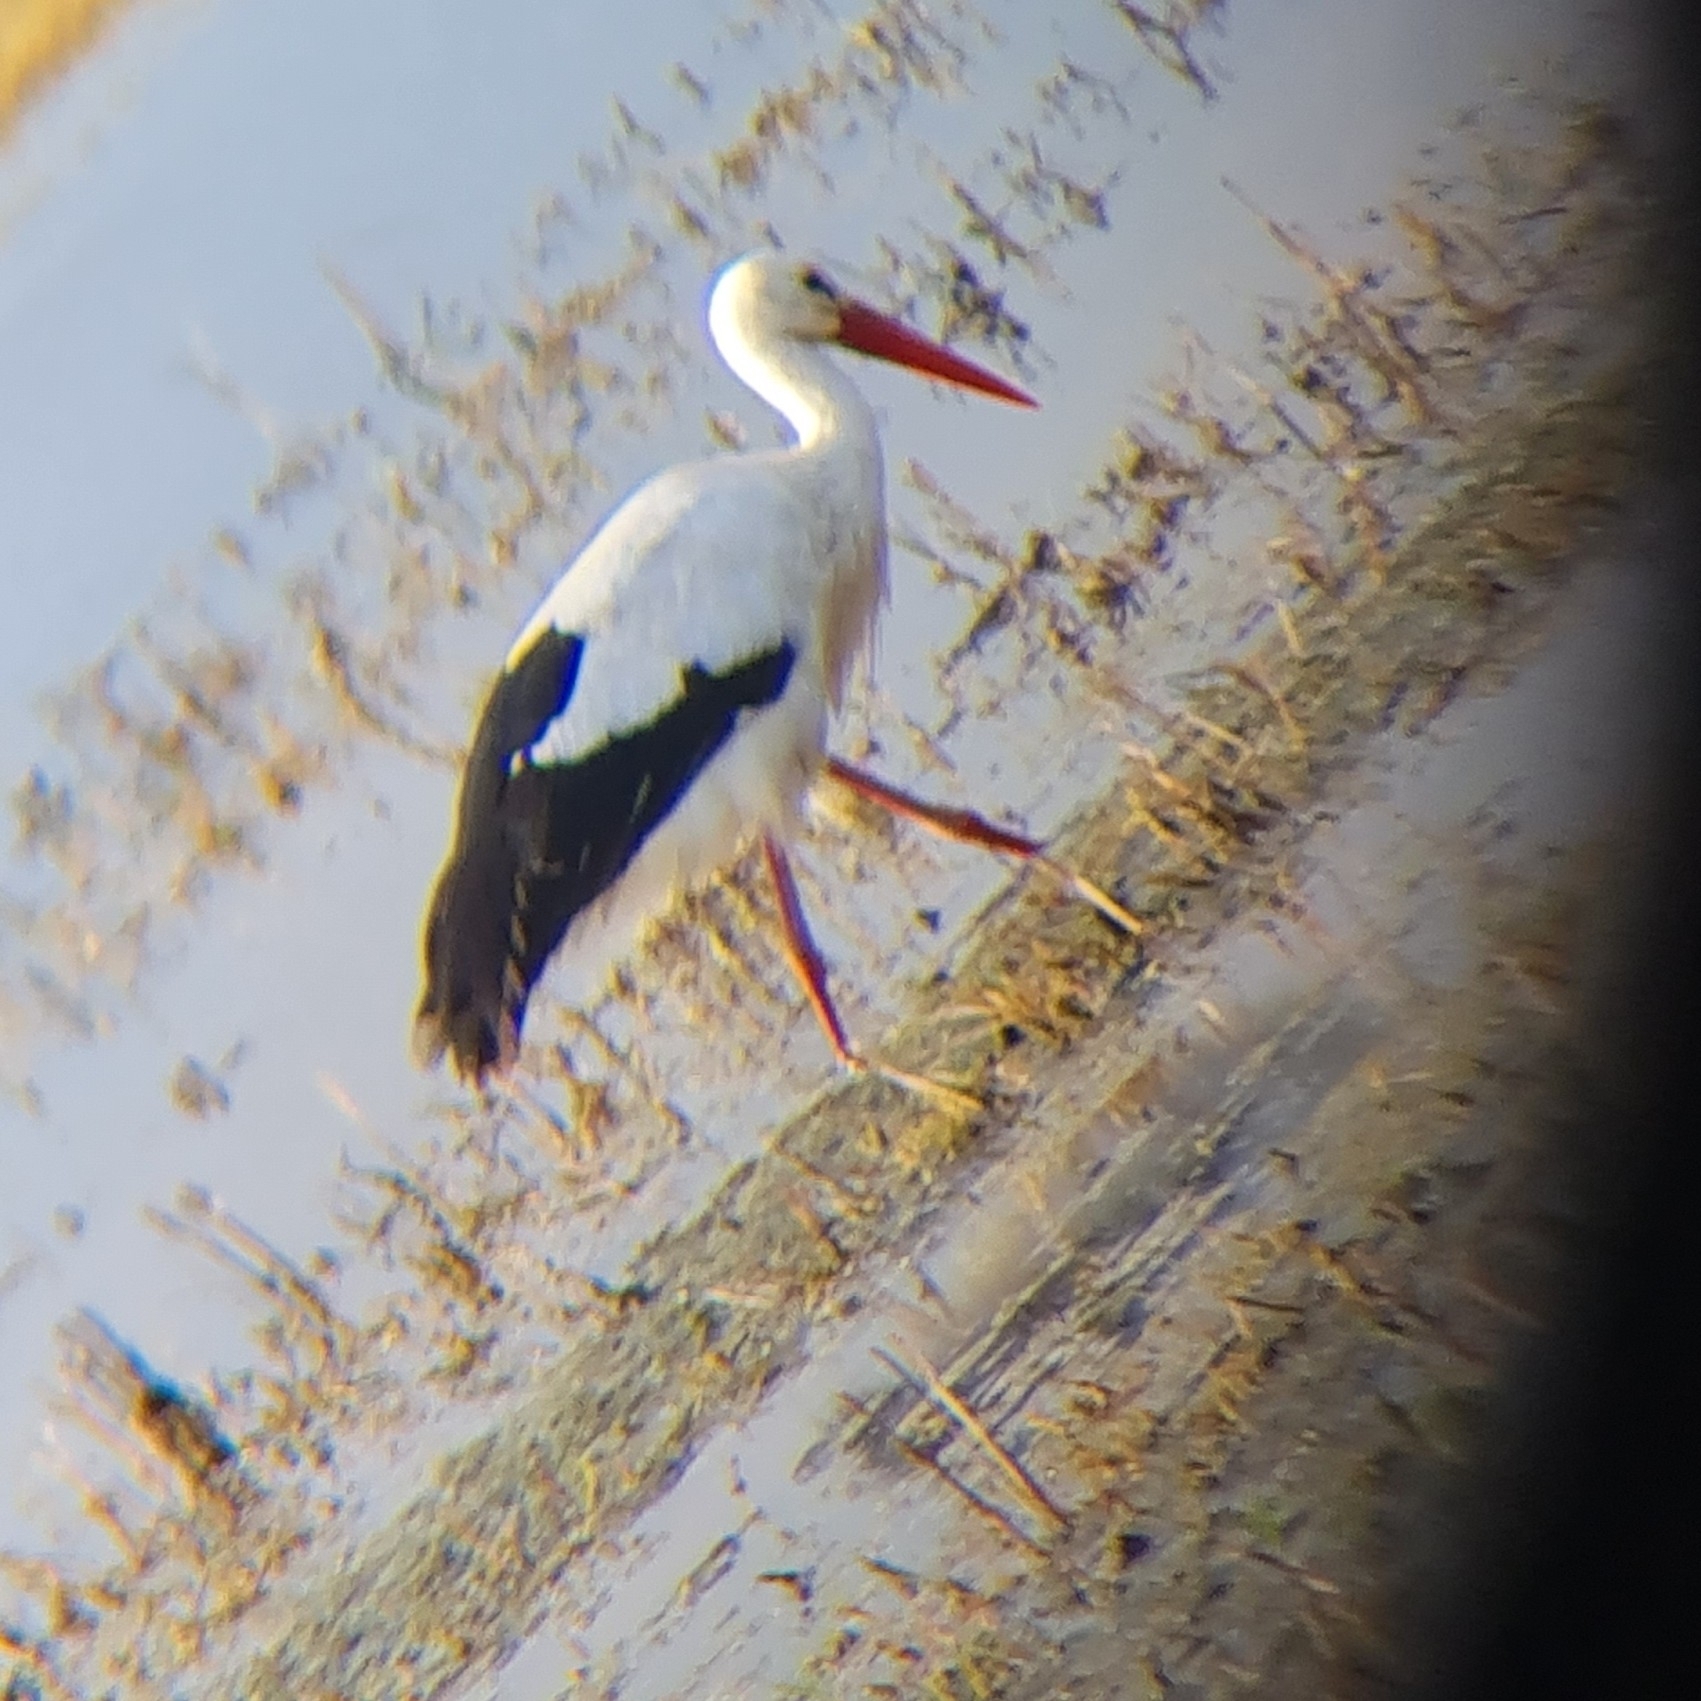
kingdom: Animalia
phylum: Chordata
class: Aves
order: Ciconiiformes
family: Ciconiidae
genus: Ciconia
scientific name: Ciconia ciconia
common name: White stork
